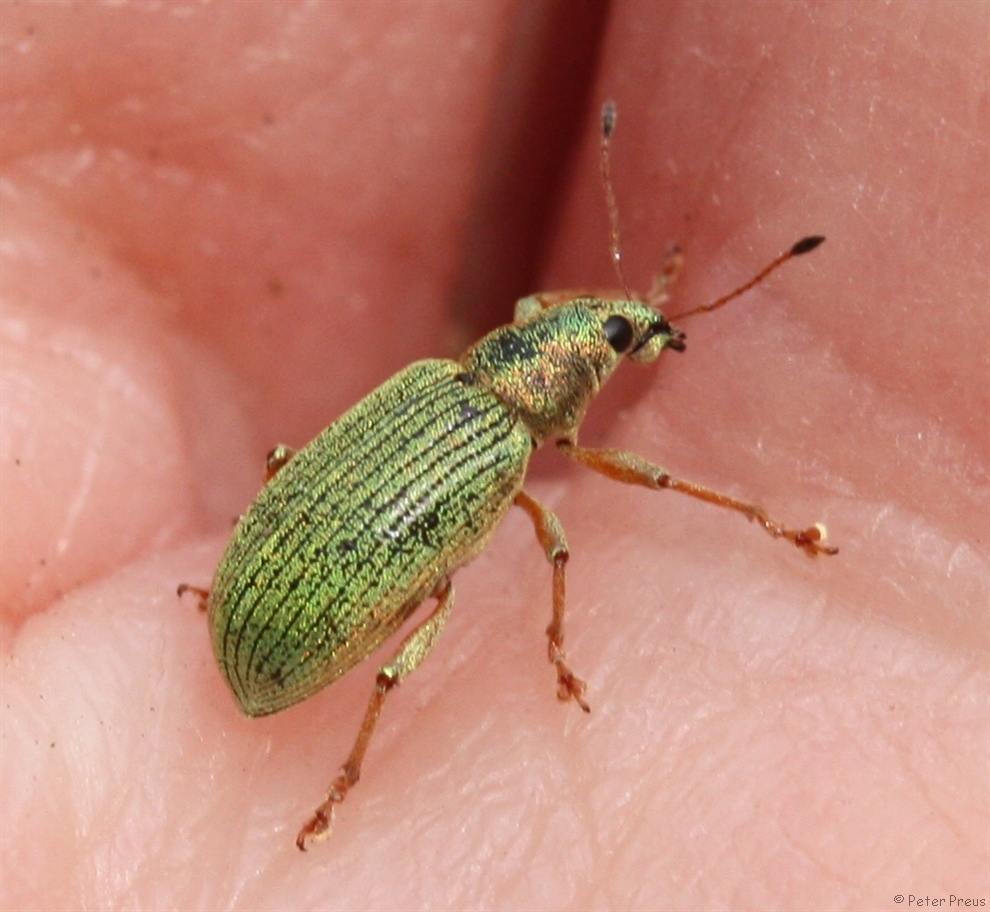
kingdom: Animalia
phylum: Arthropoda
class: Insecta
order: Coleoptera
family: Curculionidae
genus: Polydrusus
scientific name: Polydrusus formosus
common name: Weevil
